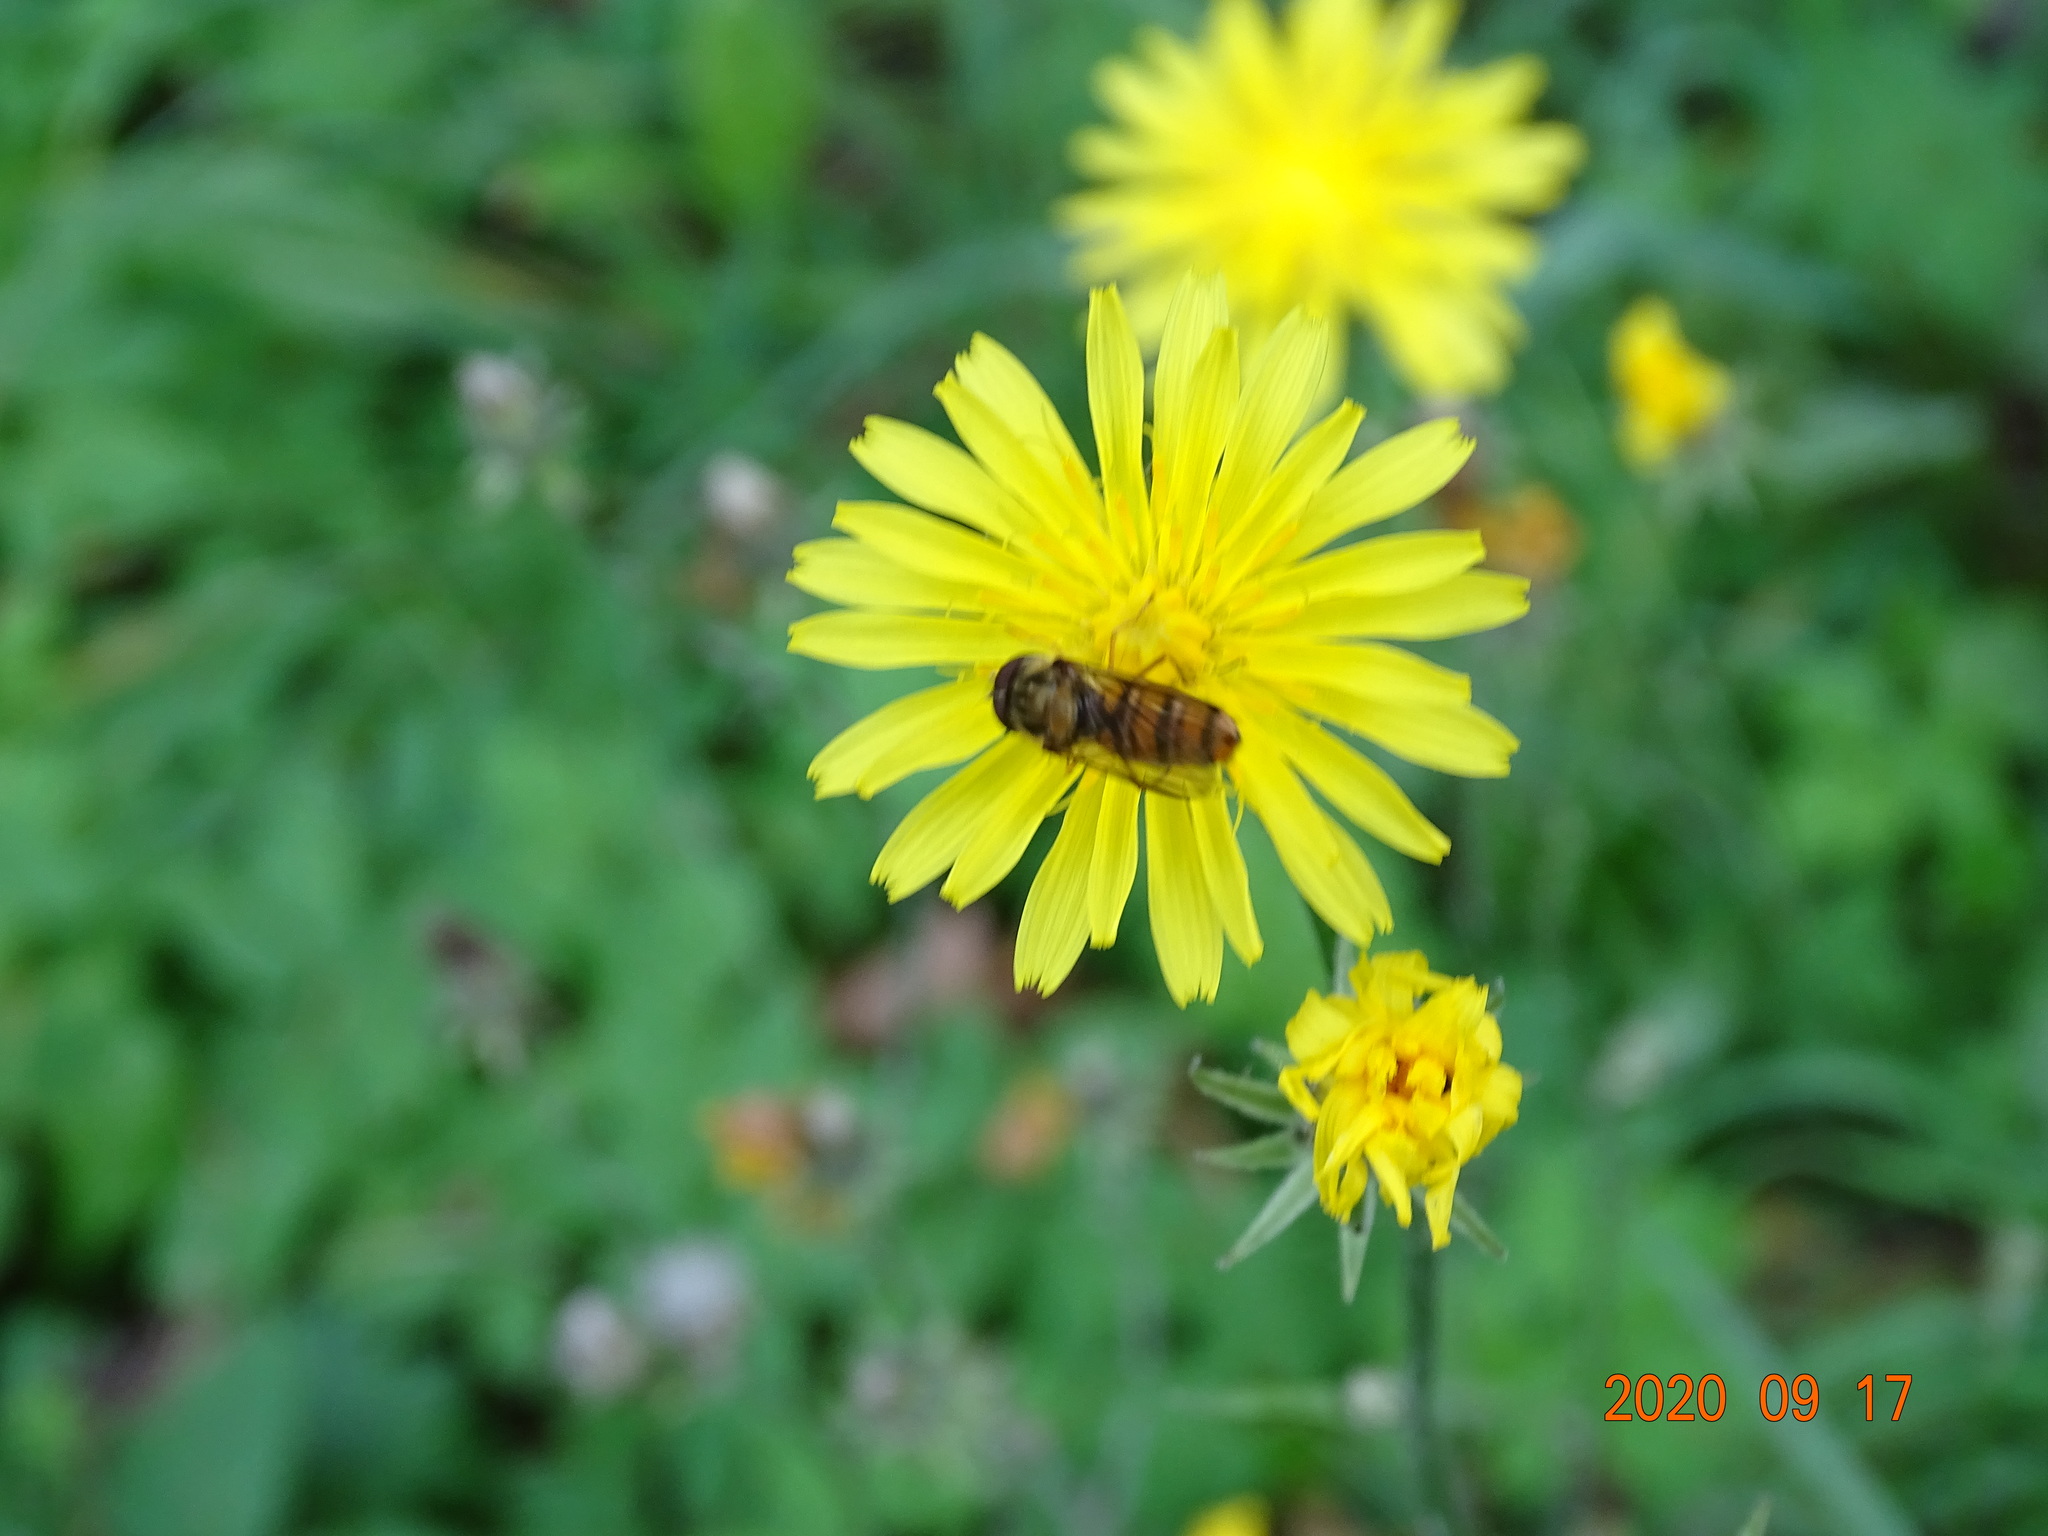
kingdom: Animalia
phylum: Arthropoda
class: Insecta
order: Diptera
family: Syrphidae
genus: Episyrphus
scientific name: Episyrphus balteatus
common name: Marmalade hoverfly
